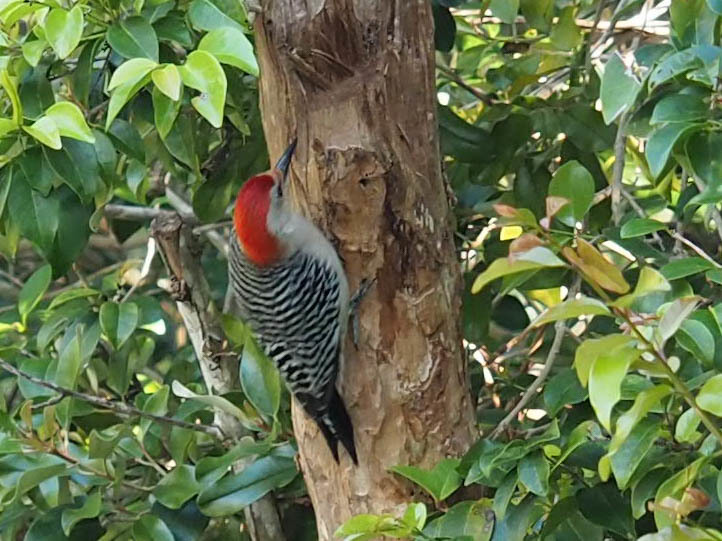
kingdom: Animalia
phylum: Chordata
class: Aves
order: Piciformes
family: Picidae
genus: Melanerpes
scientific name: Melanerpes carolinus
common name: Red-bellied woodpecker
